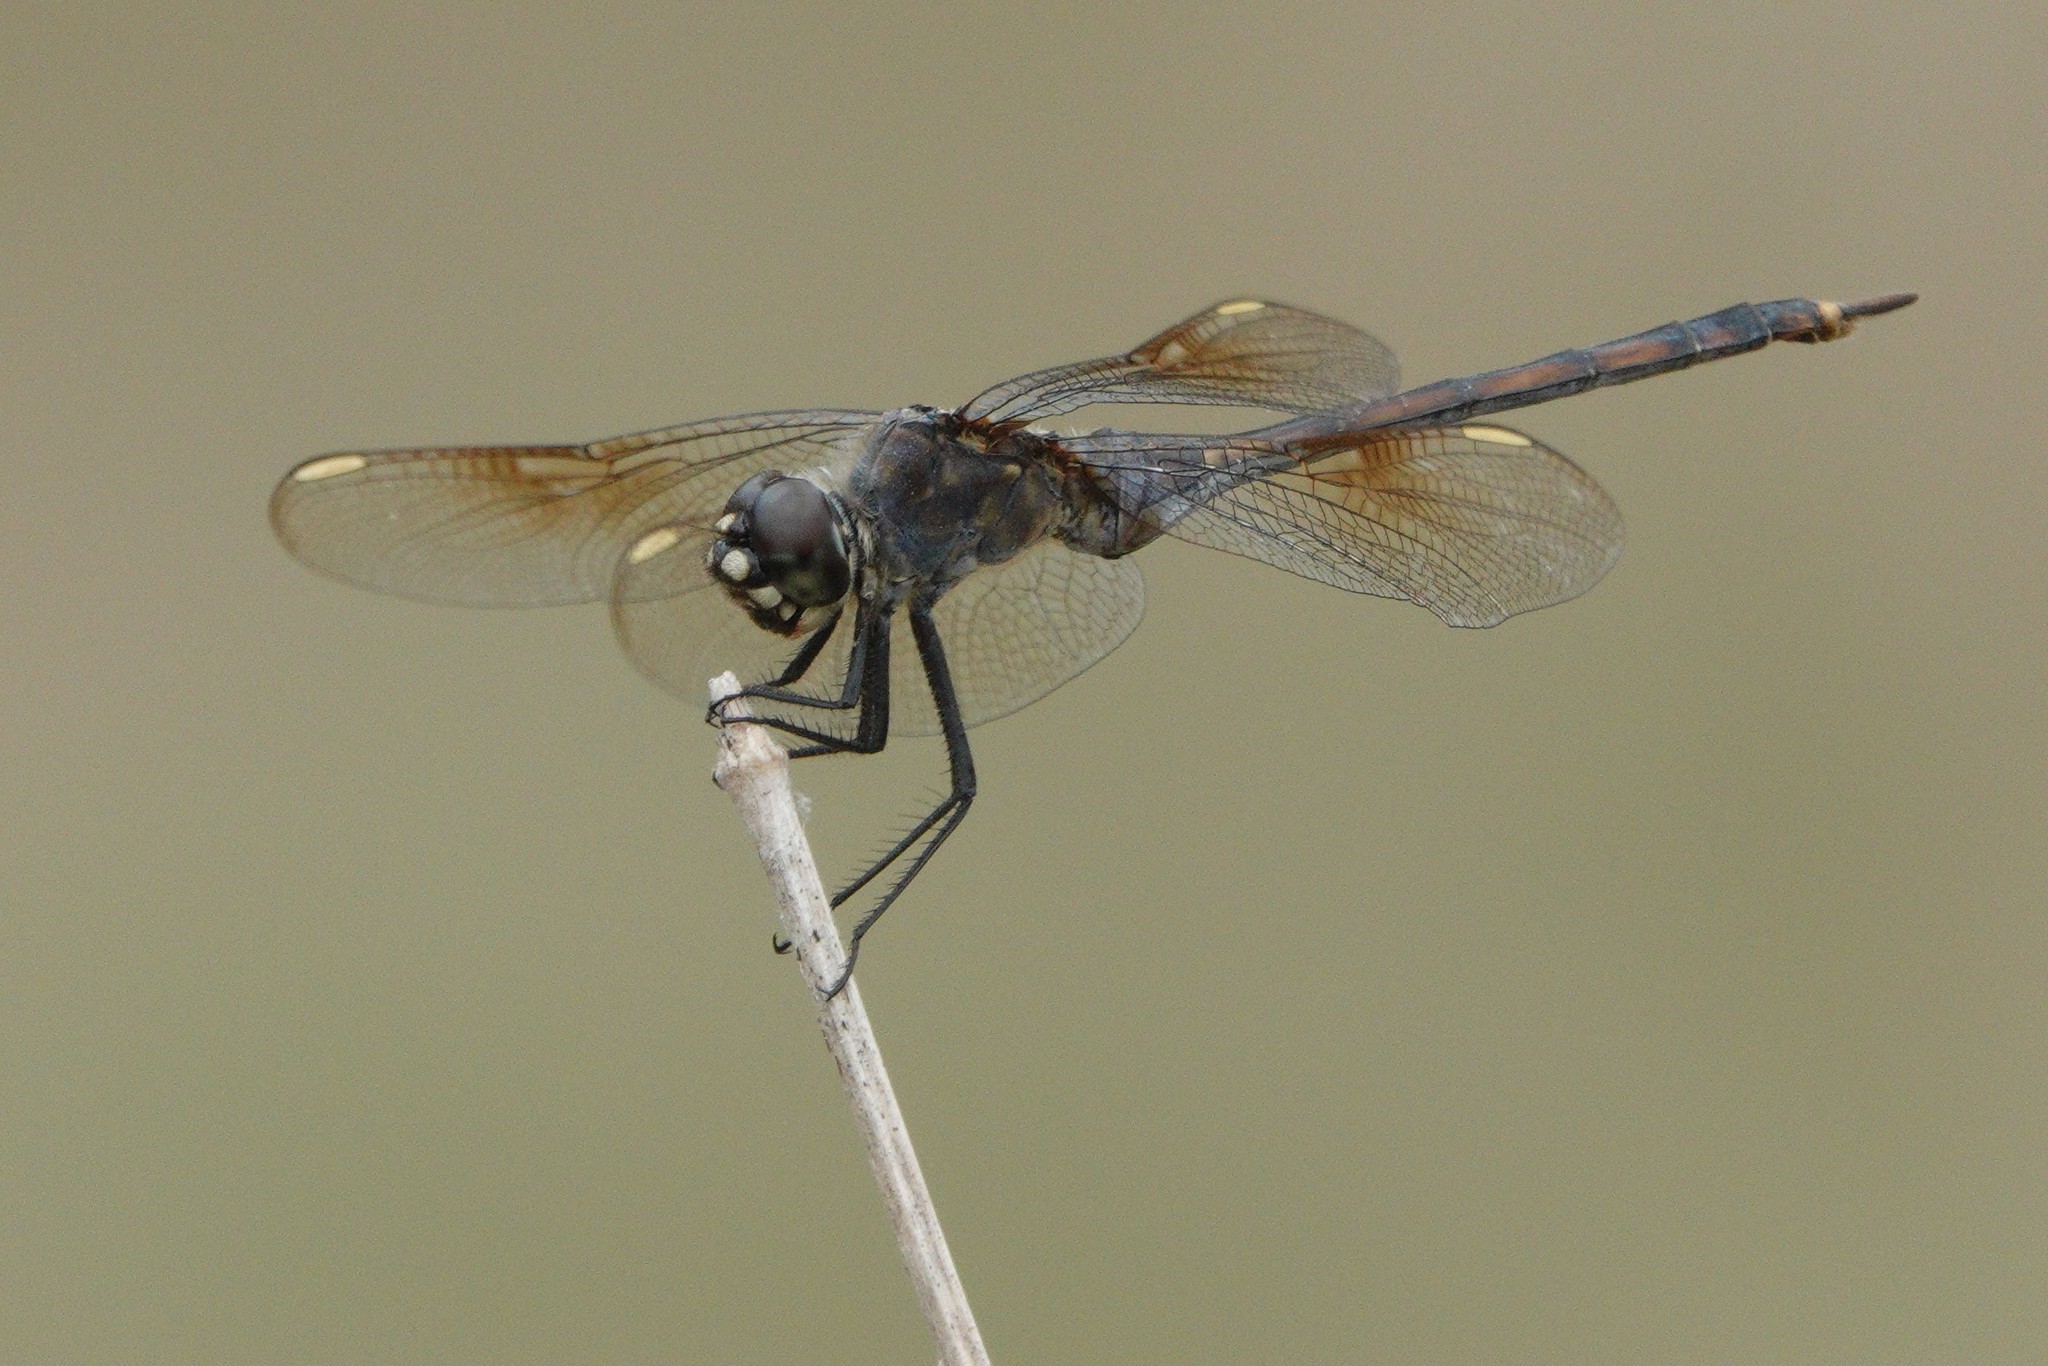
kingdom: Animalia
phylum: Arthropoda
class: Insecta
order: Odonata
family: Libellulidae
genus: Brachymesia
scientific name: Brachymesia gravida
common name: Four-spotted pennant
